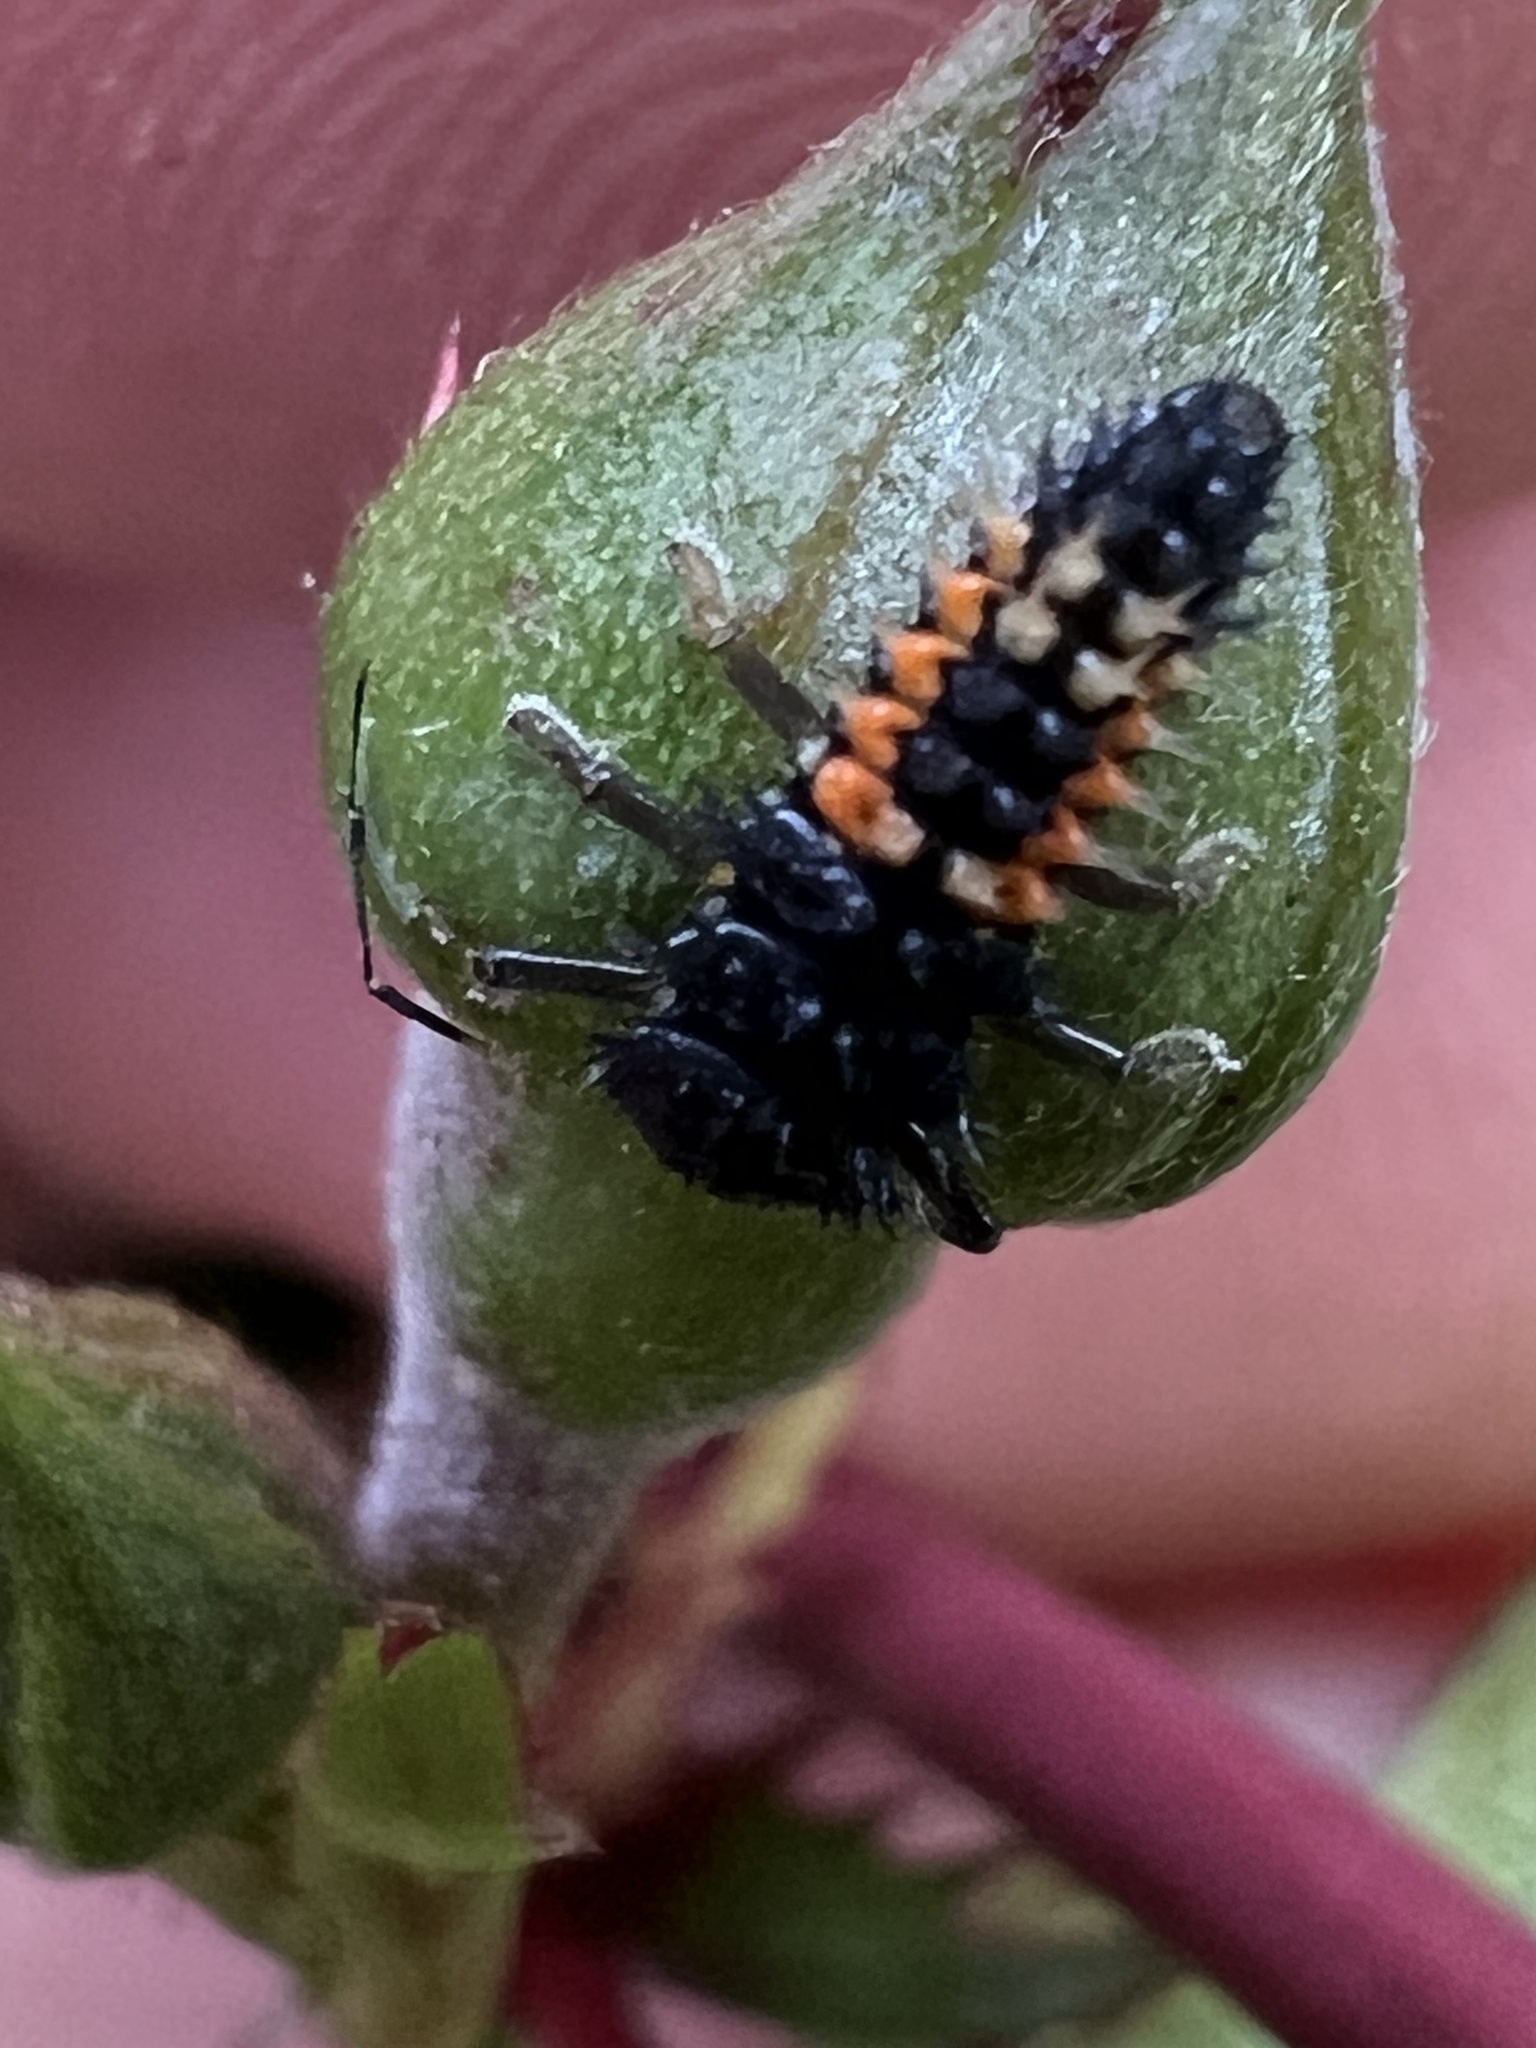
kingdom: Animalia
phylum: Arthropoda
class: Insecta
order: Coleoptera
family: Coccinellidae
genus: Harmonia
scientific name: Harmonia axyridis
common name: Harlequin ladybird
